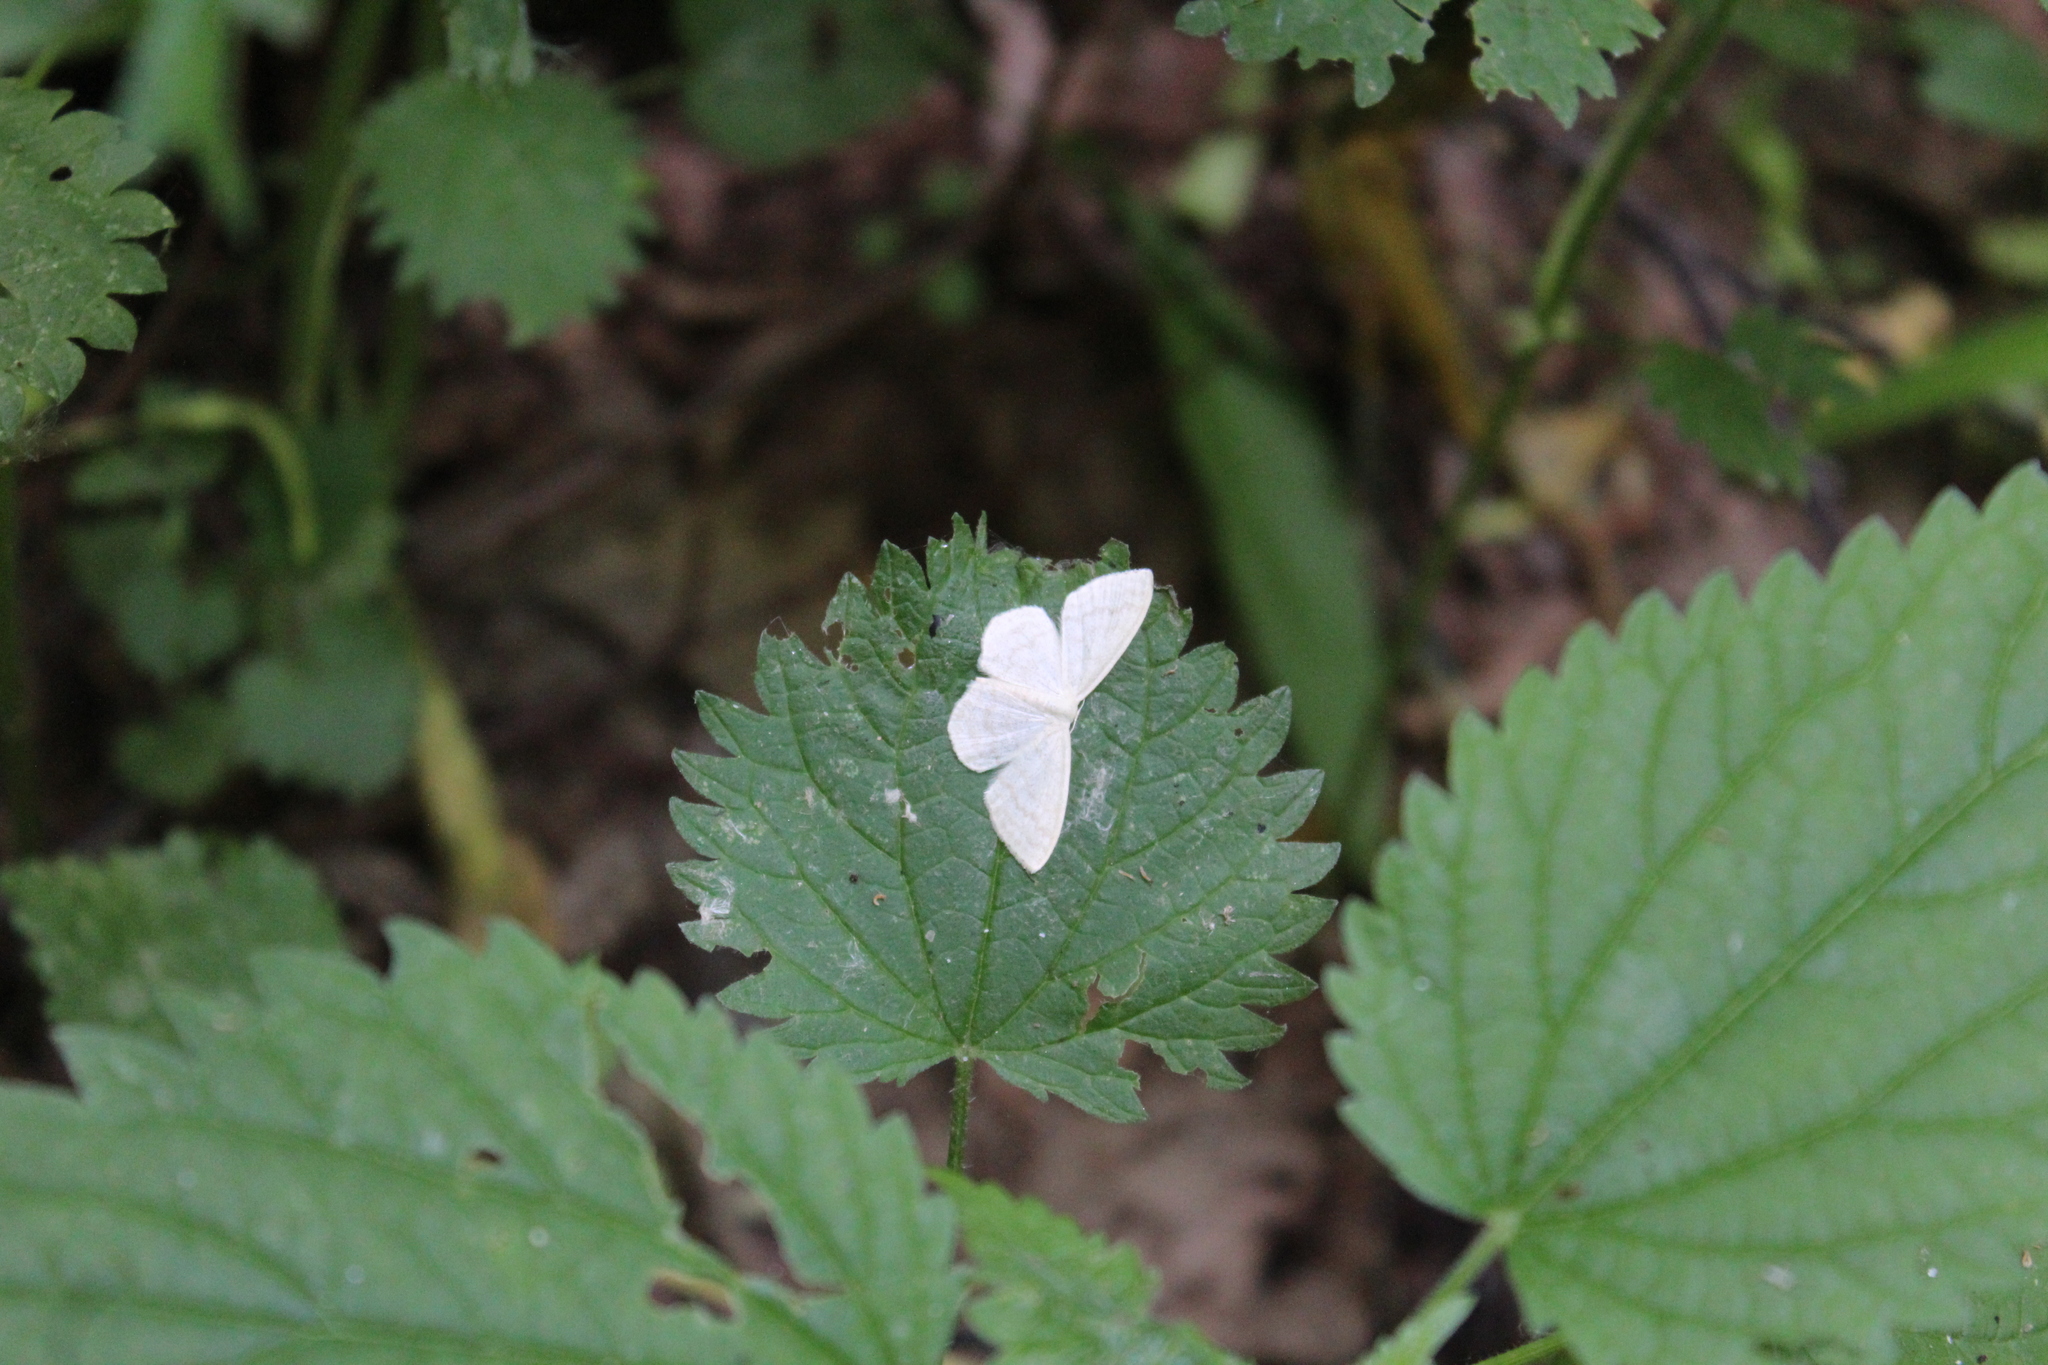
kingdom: Animalia
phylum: Arthropoda
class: Insecta
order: Lepidoptera
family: Geometridae
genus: Scopula
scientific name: Scopula floslactata
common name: Cream wave
